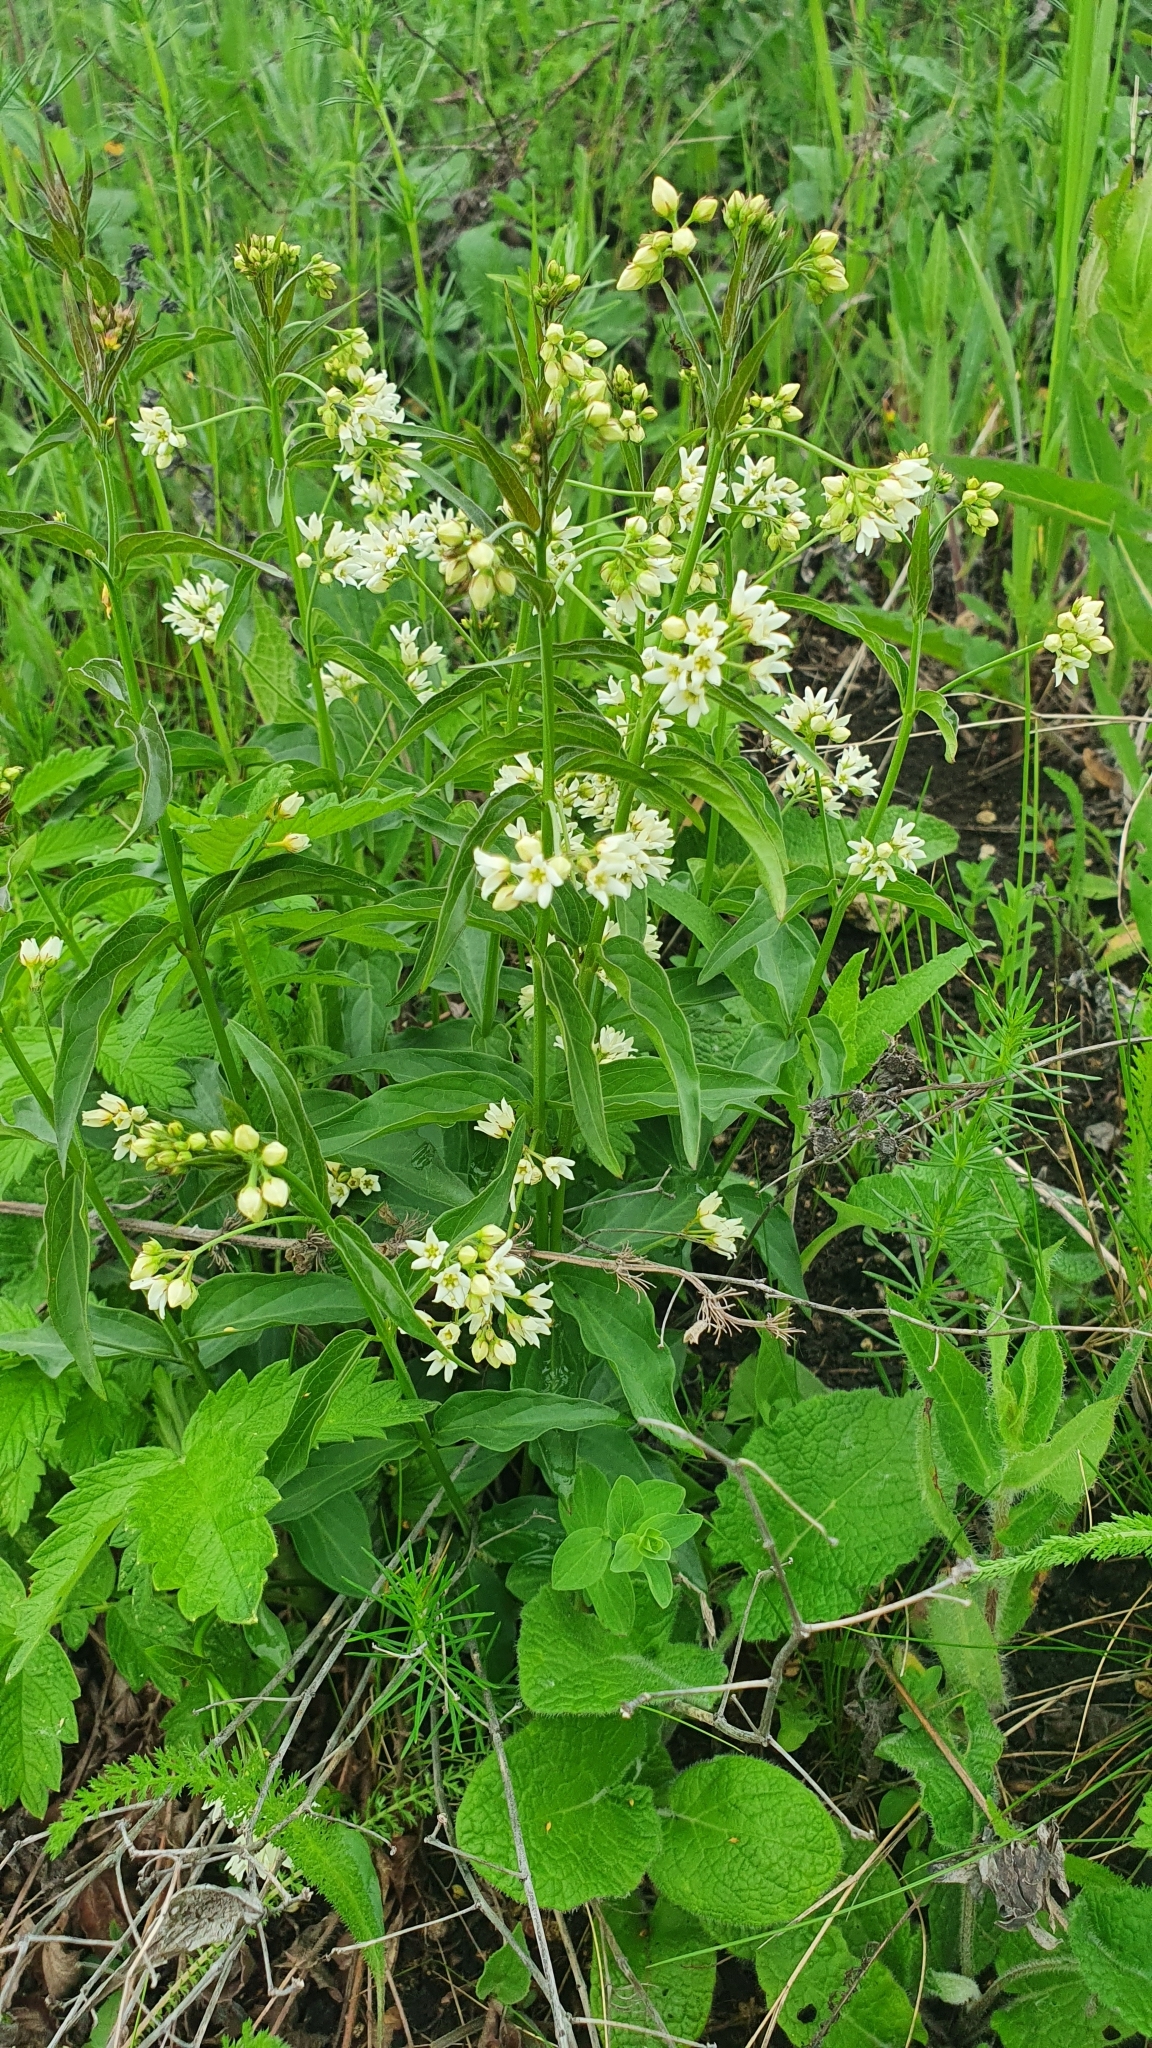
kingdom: Plantae
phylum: Tracheophyta
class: Magnoliopsida
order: Gentianales
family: Apocynaceae
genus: Vincetoxicum
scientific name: Vincetoxicum hirundinaria
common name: White swallowwort
